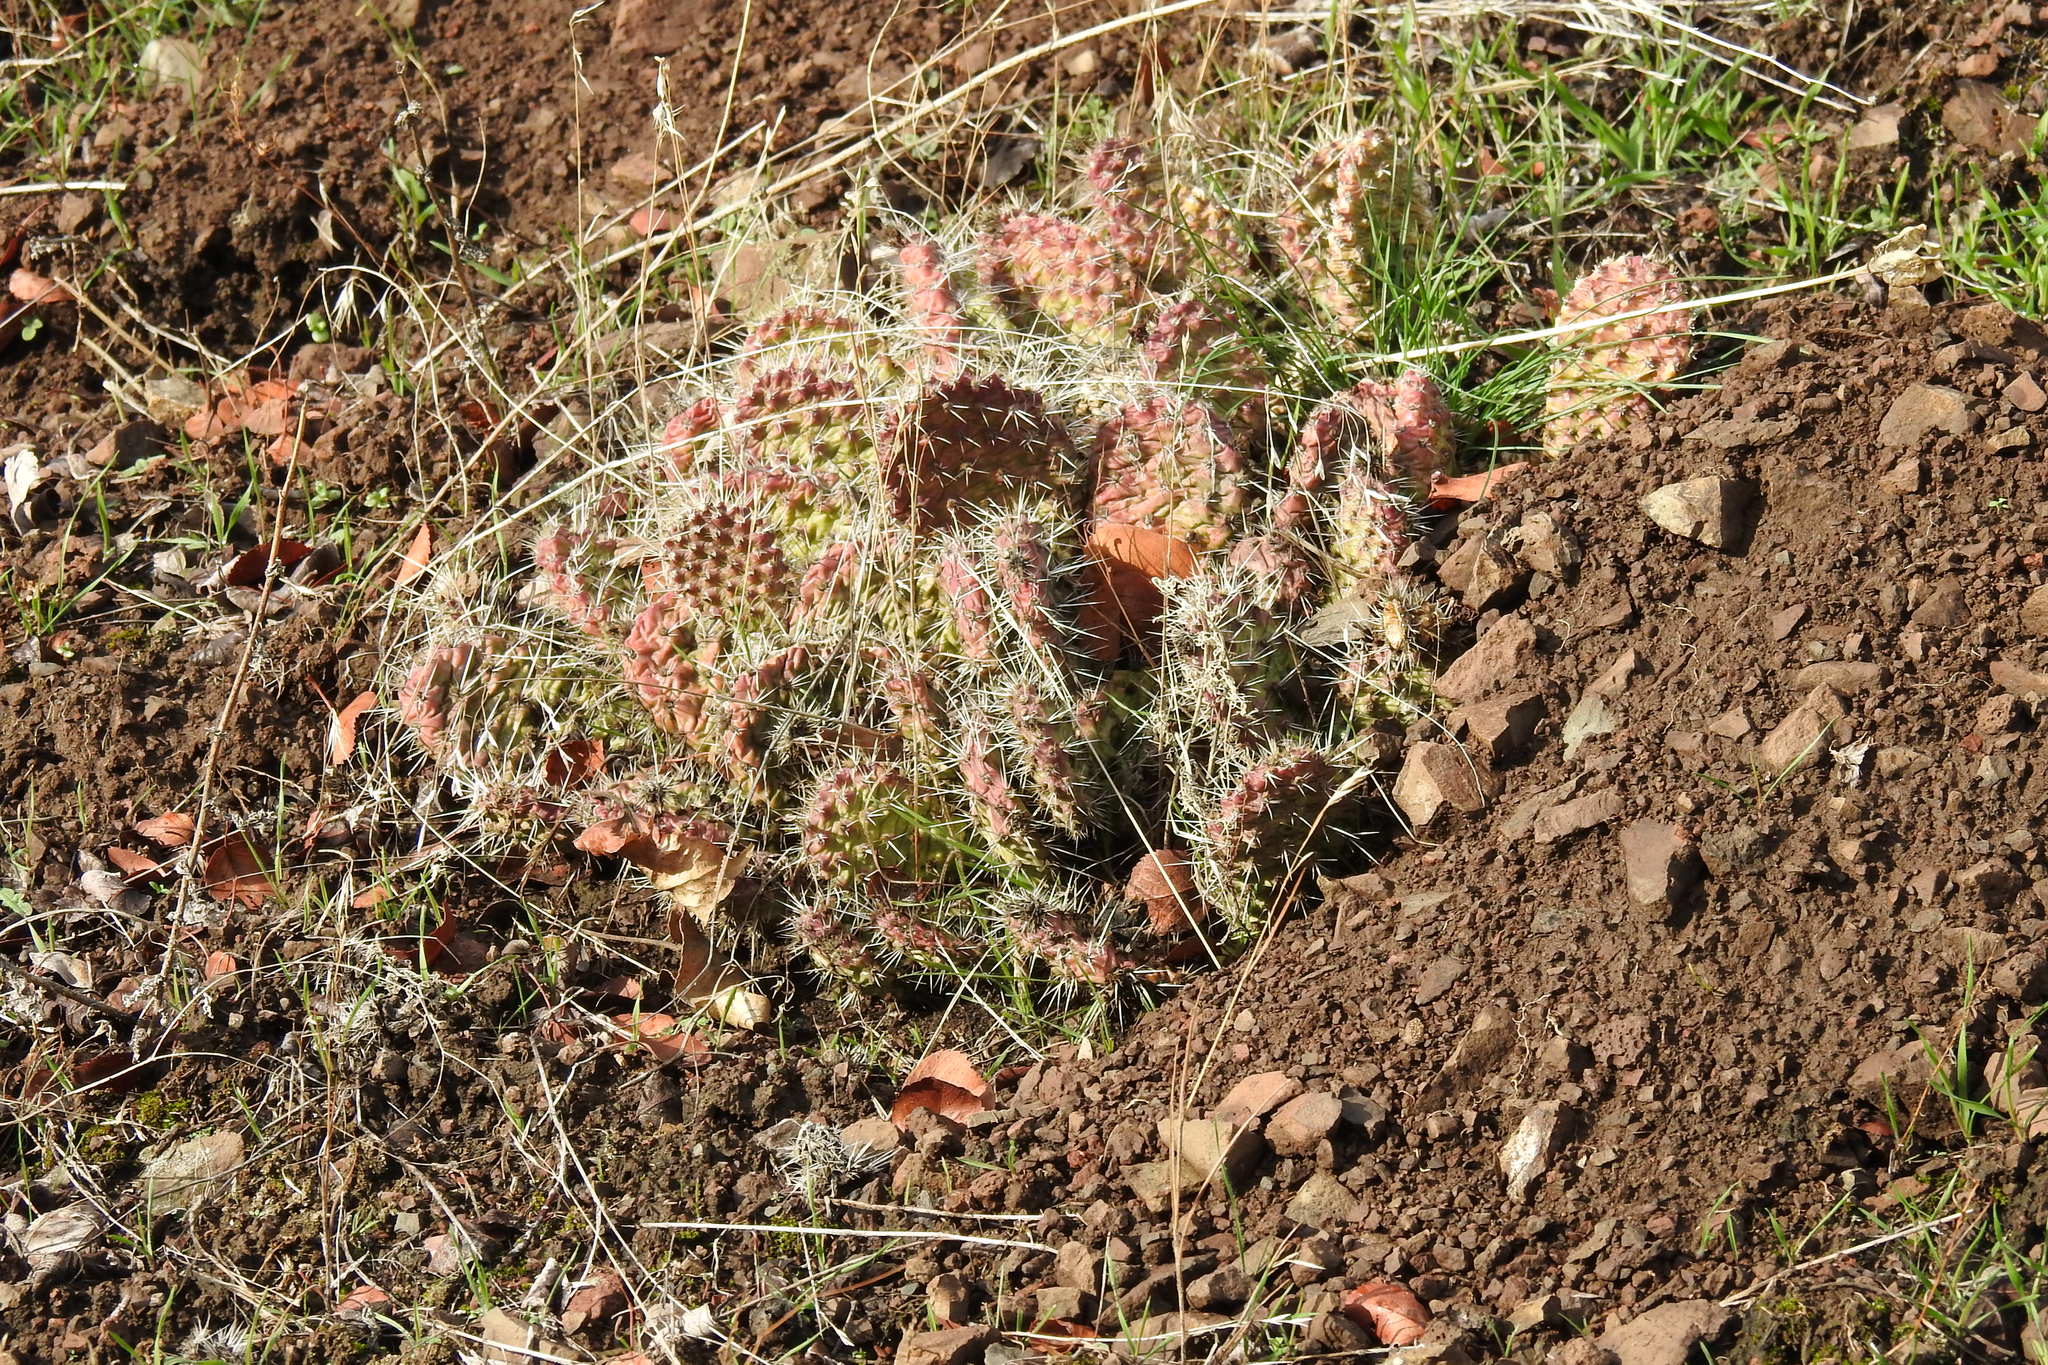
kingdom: Plantae
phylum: Tracheophyta
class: Magnoliopsida
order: Caryophyllales
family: Cactaceae
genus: Opuntia
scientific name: Opuntia polyacantha
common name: Plains prickly-pear
